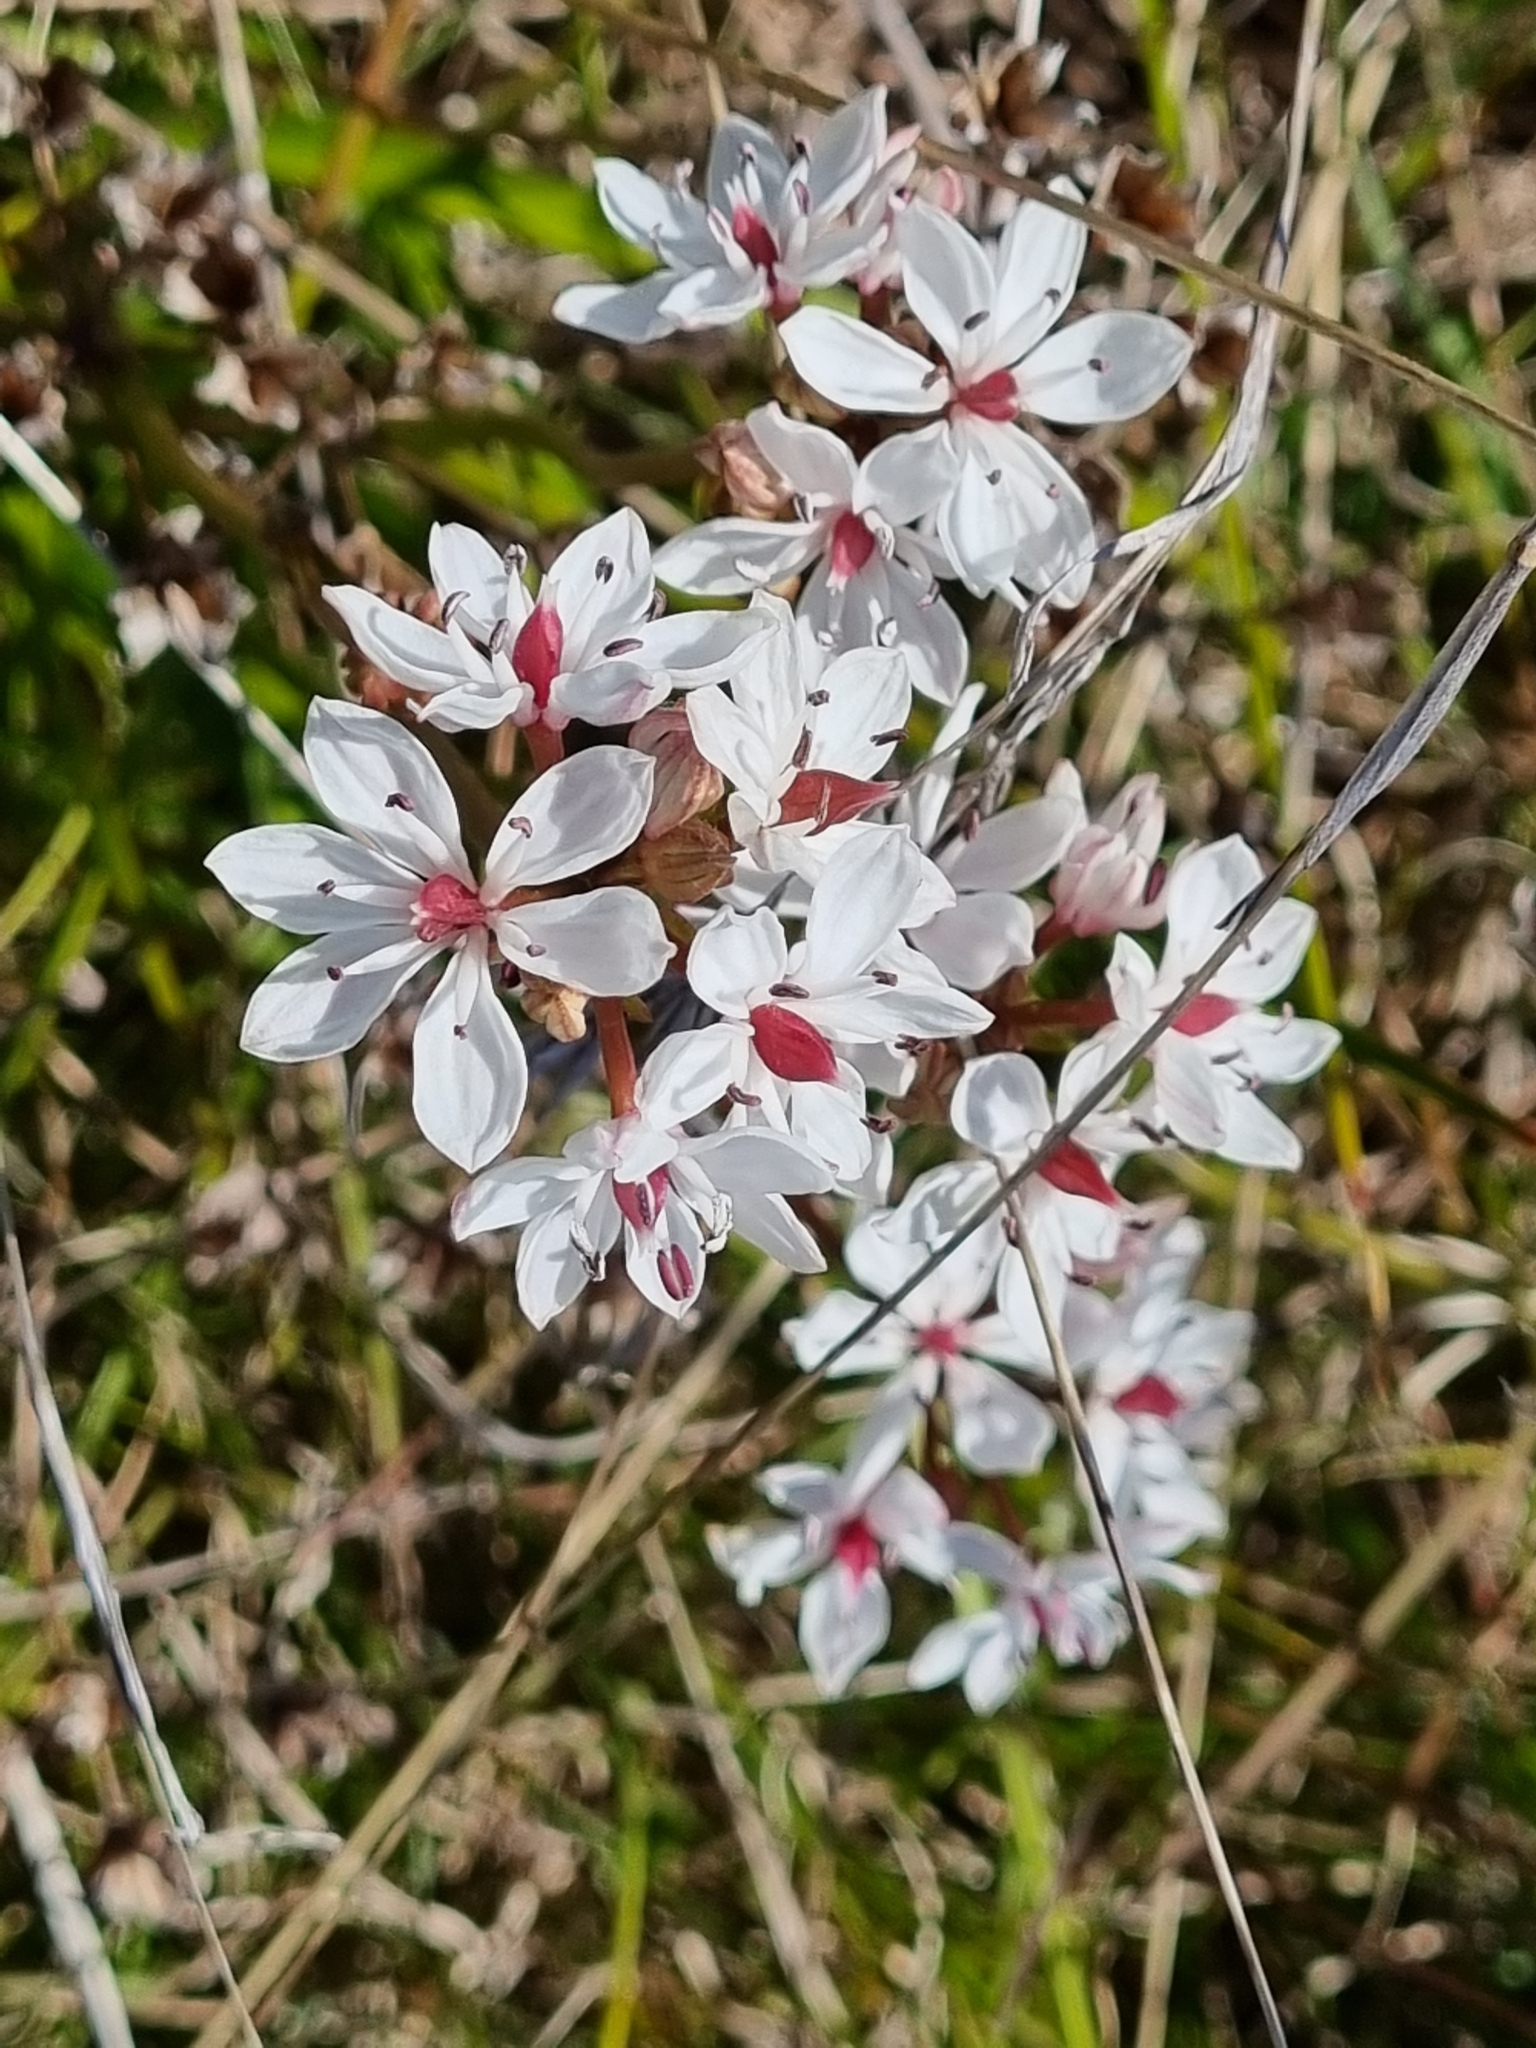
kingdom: Plantae
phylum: Tracheophyta
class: Liliopsida
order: Liliales
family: Colchicaceae
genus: Burchardia
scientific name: Burchardia umbellata
